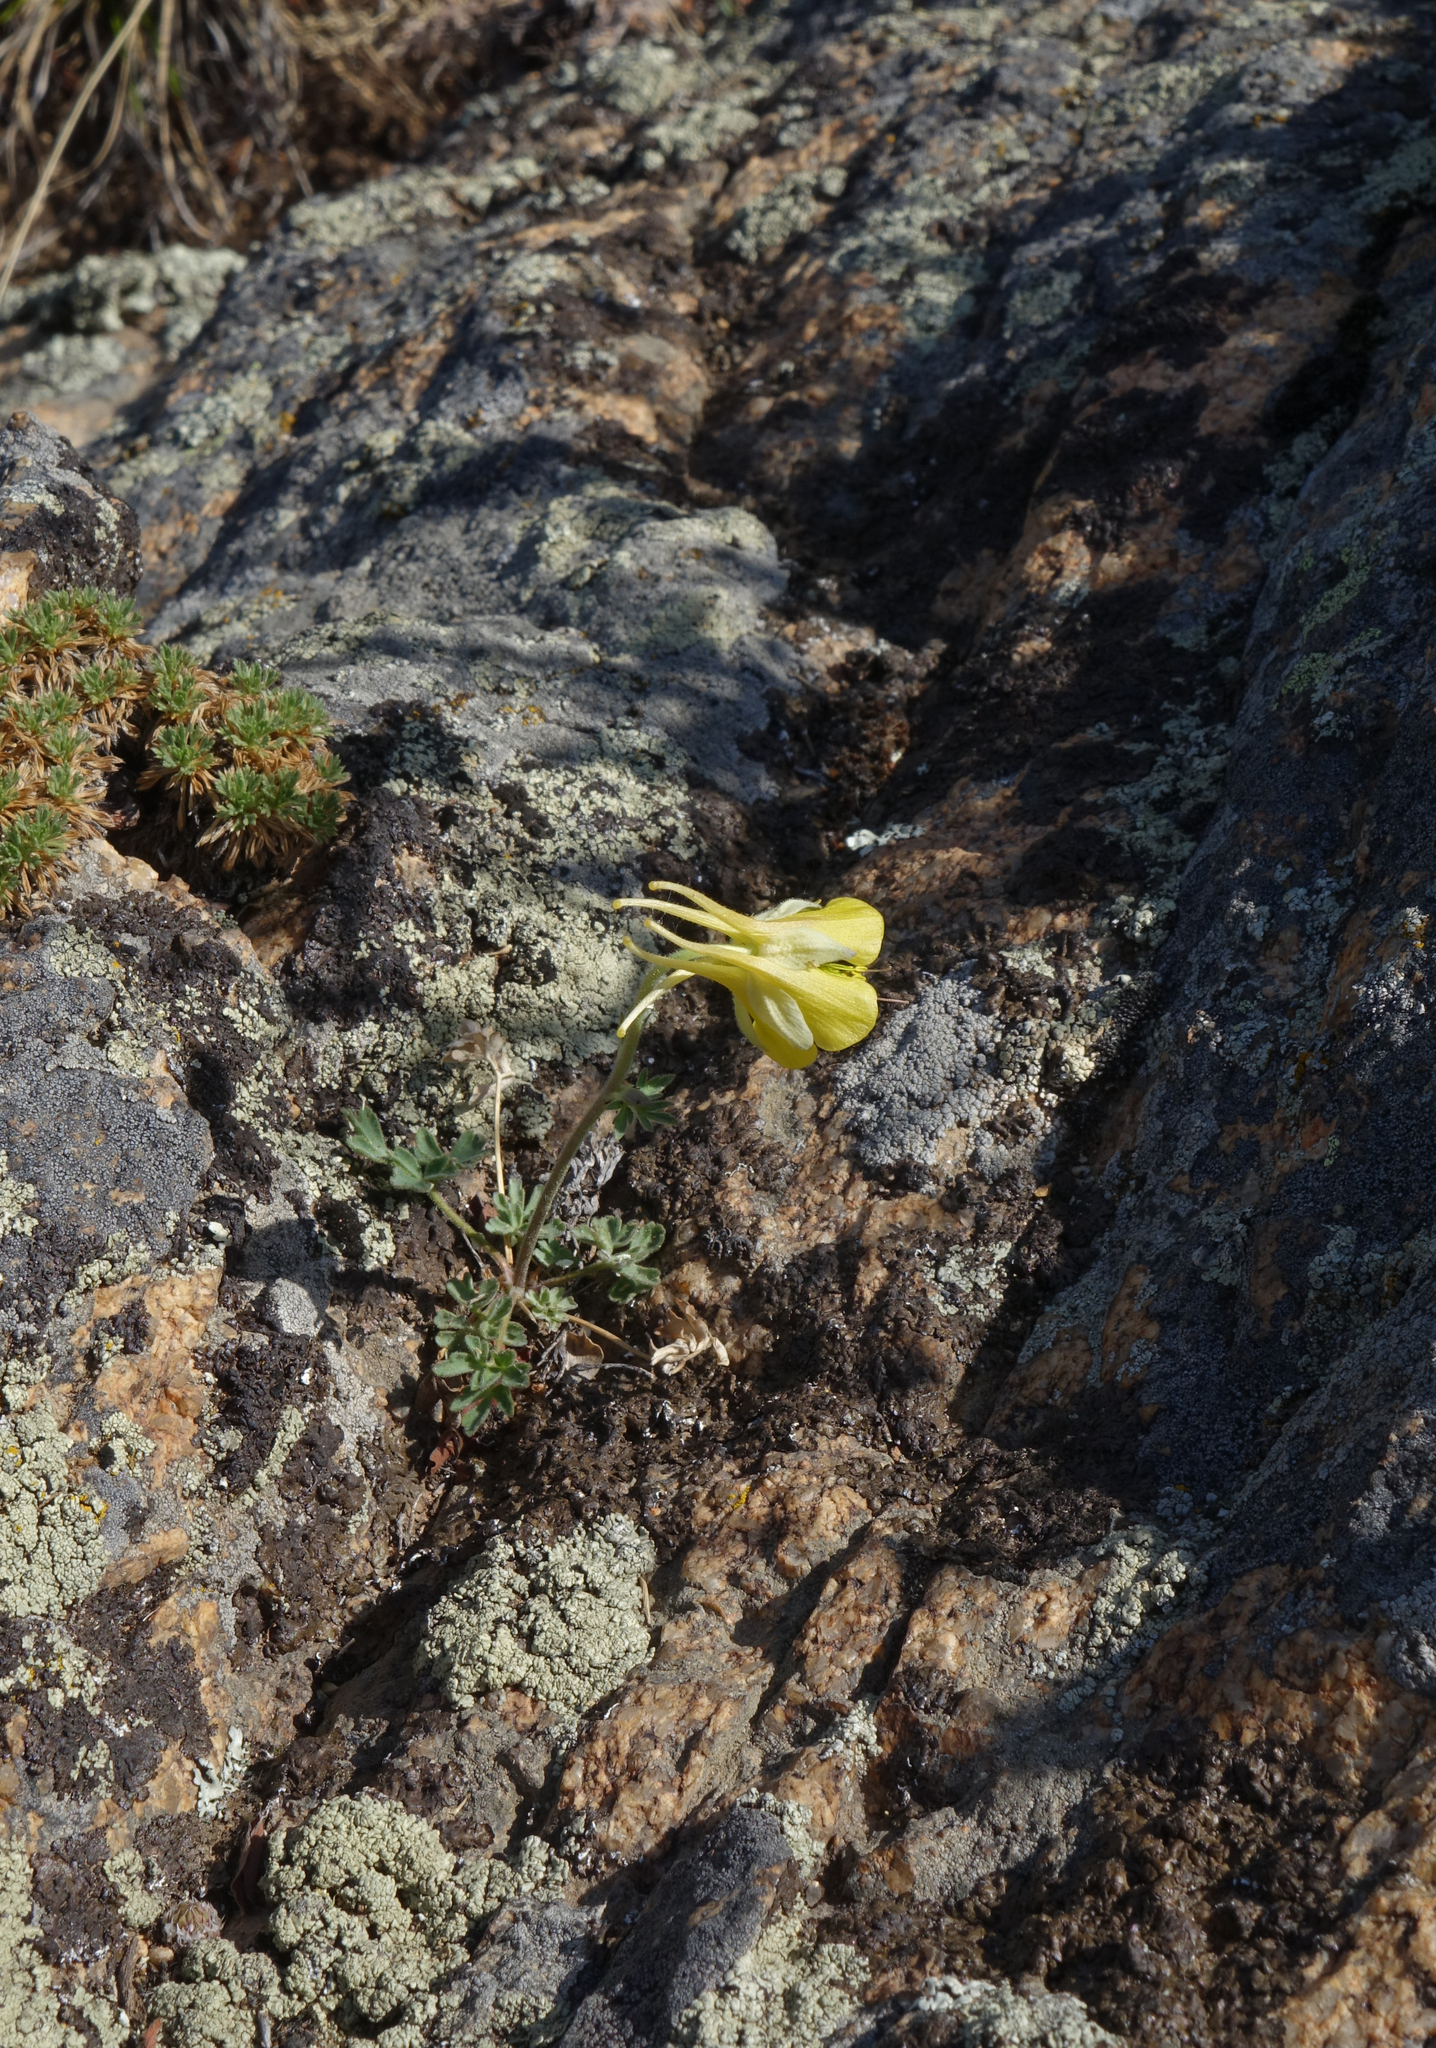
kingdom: Plantae
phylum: Tracheophyta
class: Magnoliopsida
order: Ranunculales
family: Ranunculaceae
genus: Aquilegia
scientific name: Aquilegia viridiflora
